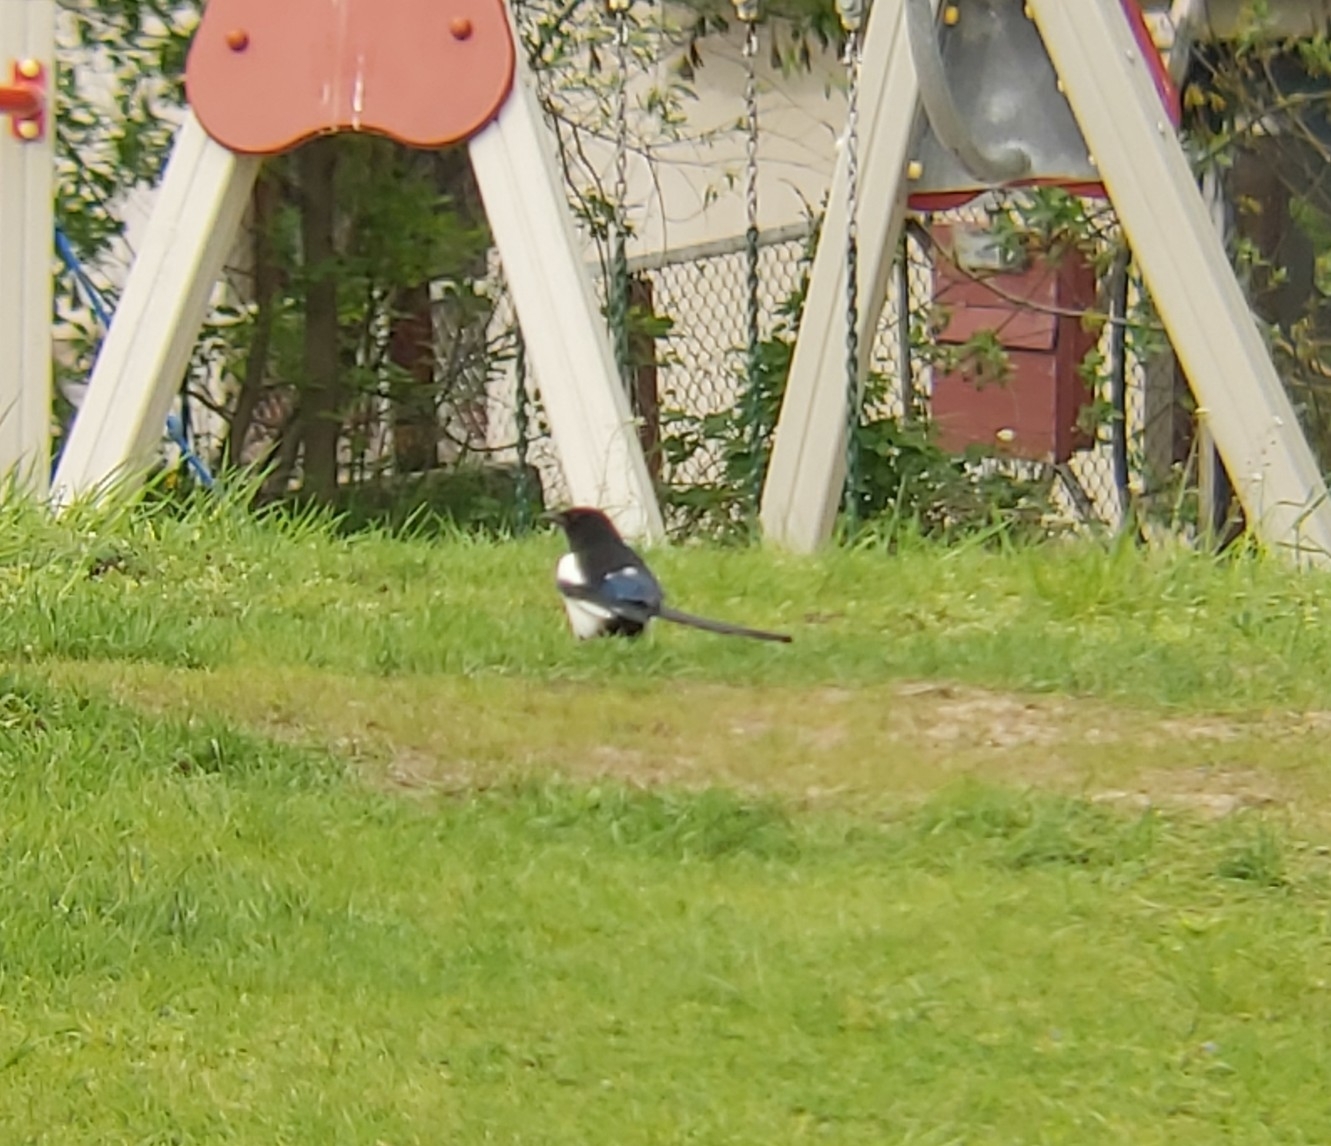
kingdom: Animalia
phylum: Chordata
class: Aves
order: Passeriformes
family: Corvidae
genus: Pica
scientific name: Pica pica
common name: Eurasian magpie
